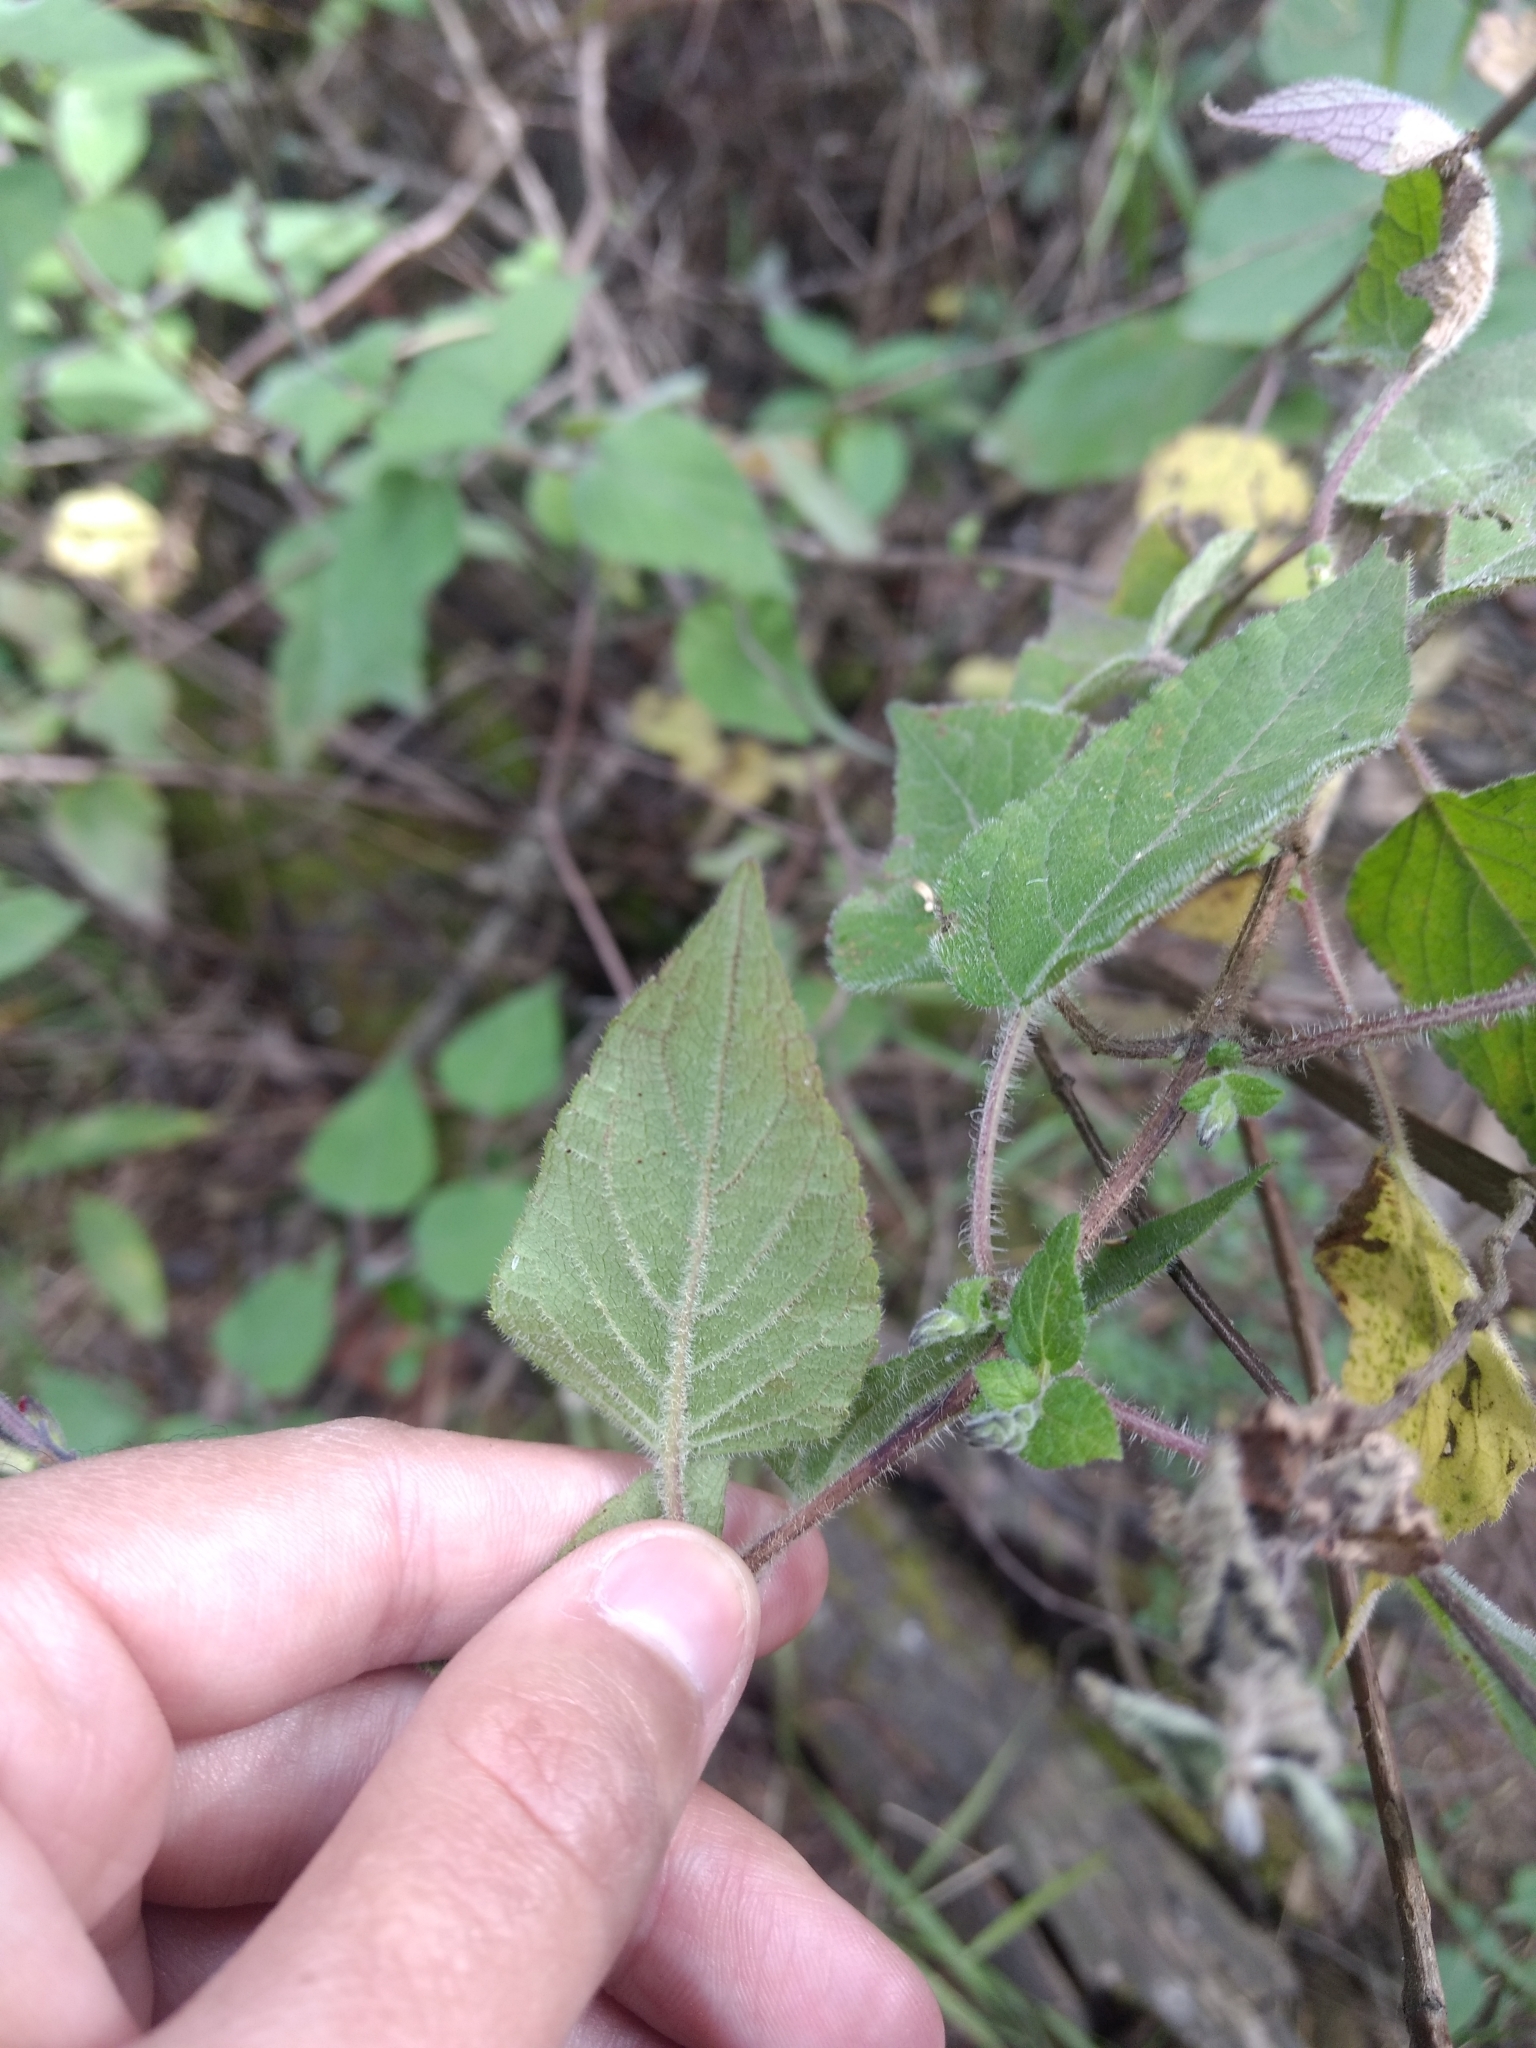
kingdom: Plantae
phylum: Tracheophyta
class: Magnoliopsida
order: Lamiales
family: Lamiaceae
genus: Salvia
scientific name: Salvia elegans
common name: Pineapple sage
